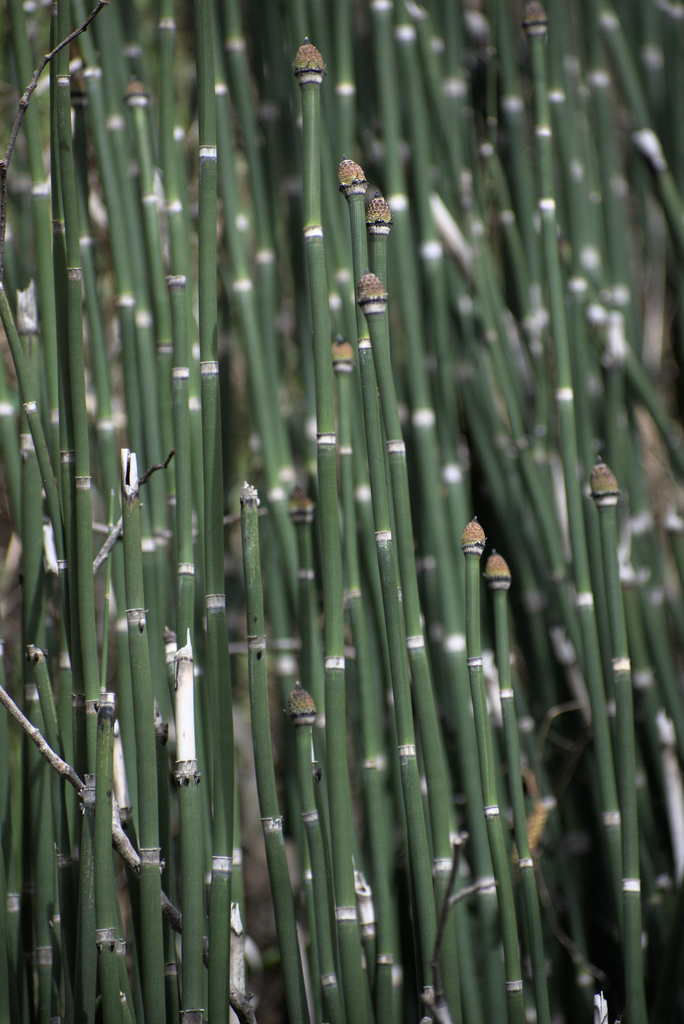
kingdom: Plantae
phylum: Tracheophyta
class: Polypodiopsida
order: Equisetales
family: Equisetaceae
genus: Equisetum
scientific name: Equisetum praealtum
